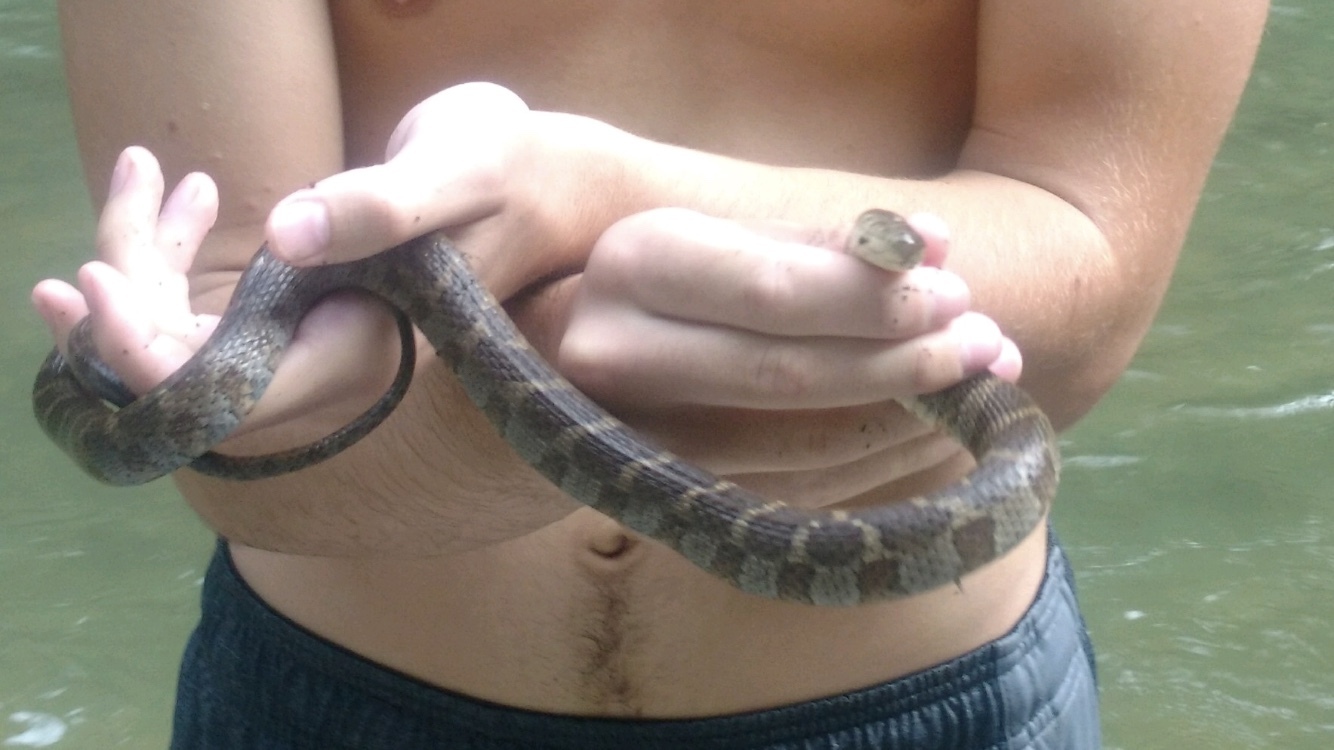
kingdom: Animalia
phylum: Chordata
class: Squamata
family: Colubridae
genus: Nerodia
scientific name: Nerodia sipedon
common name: Northern water snake
